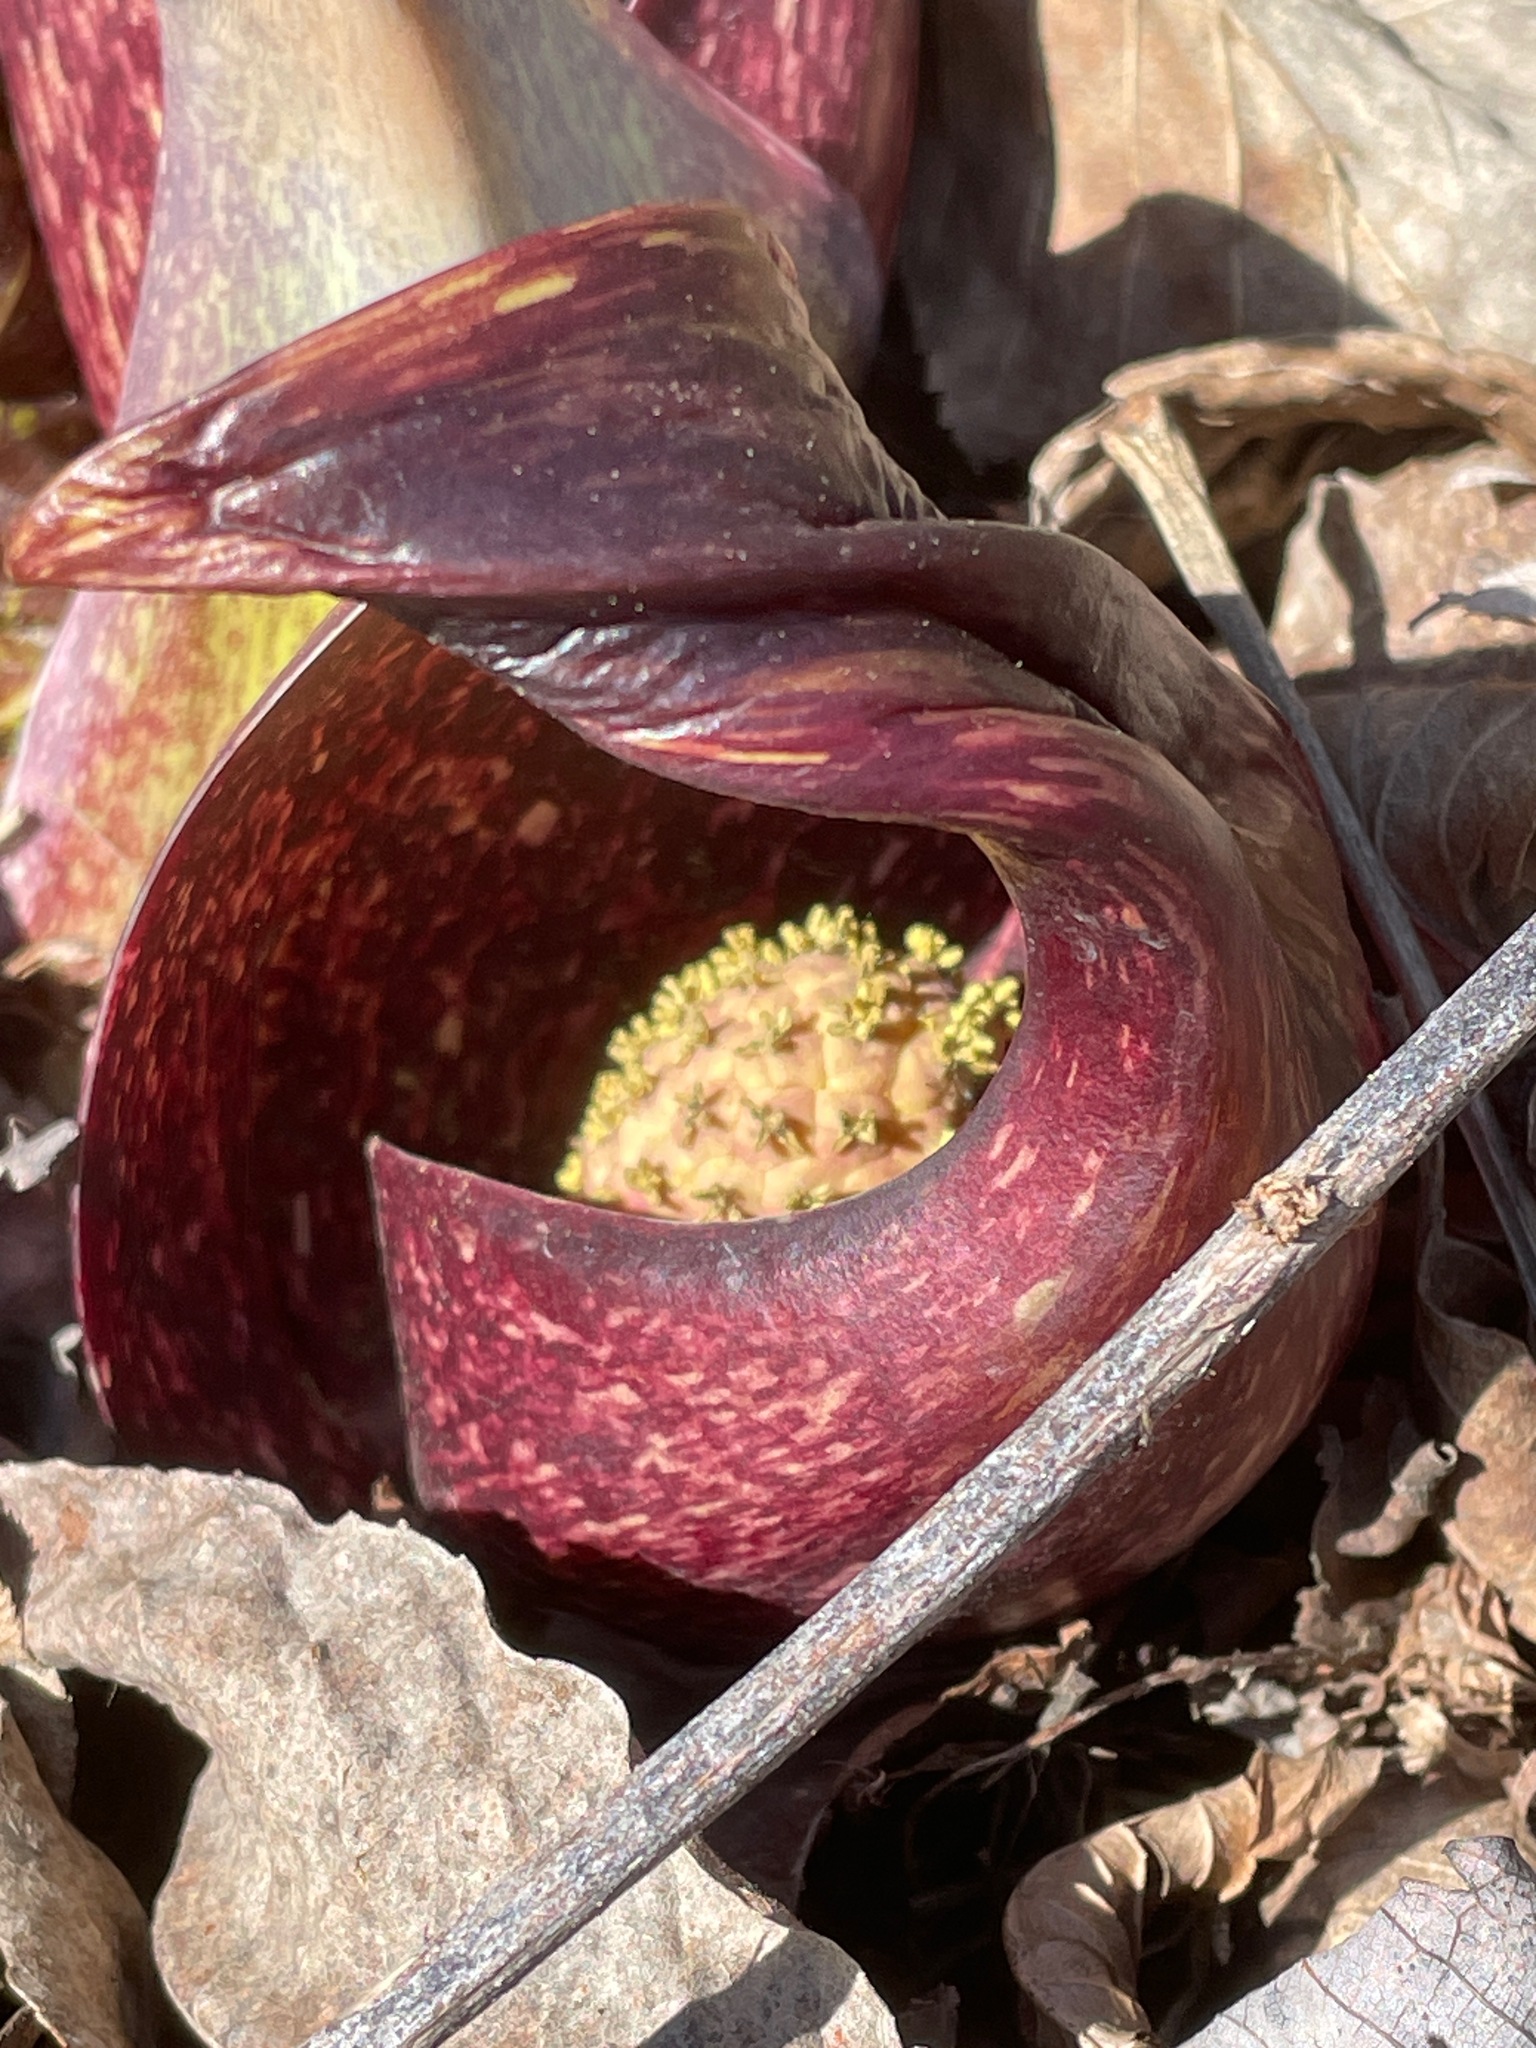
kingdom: Plantae
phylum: Tracheophyta
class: Liliopsida
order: Alismatales
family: Araceae
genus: Symplocarpus
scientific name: Symplocarpus foetidus
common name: Eastern skunk cabbage
